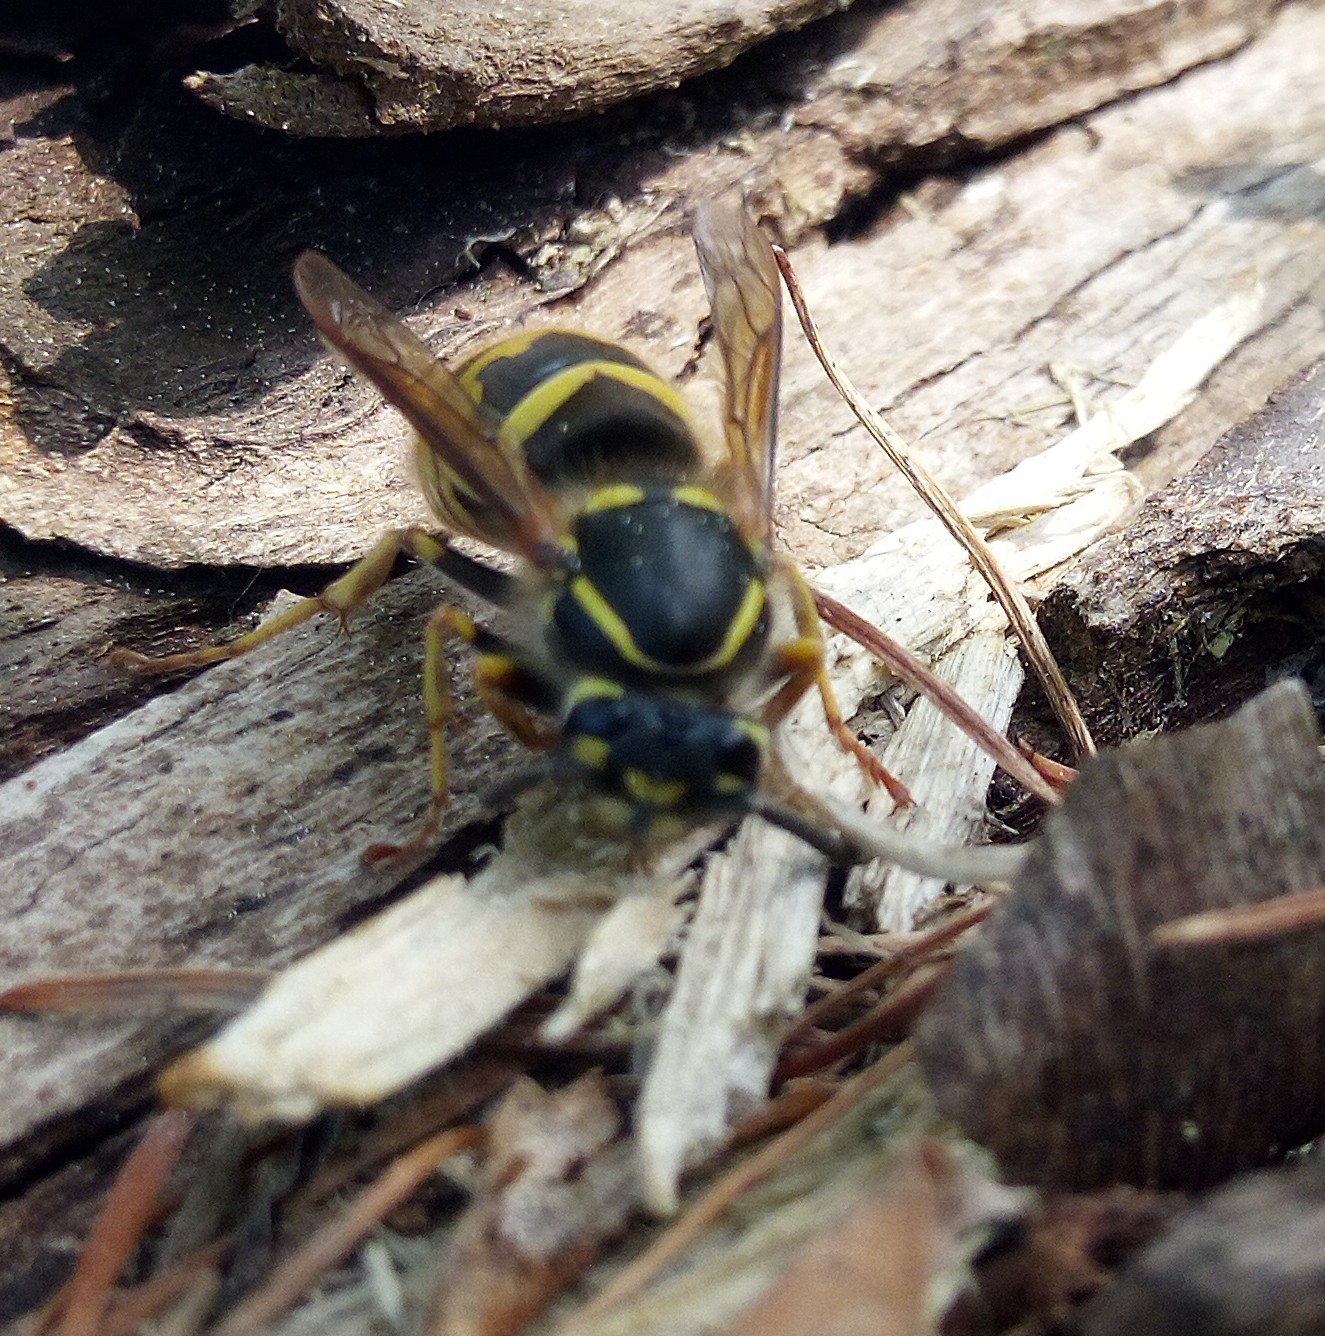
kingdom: Animalia
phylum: Arthropoda
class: Insecta
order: Hymenoptera
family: Vespidae
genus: Vespula
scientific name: Vespula vulgaris
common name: Common wasp
